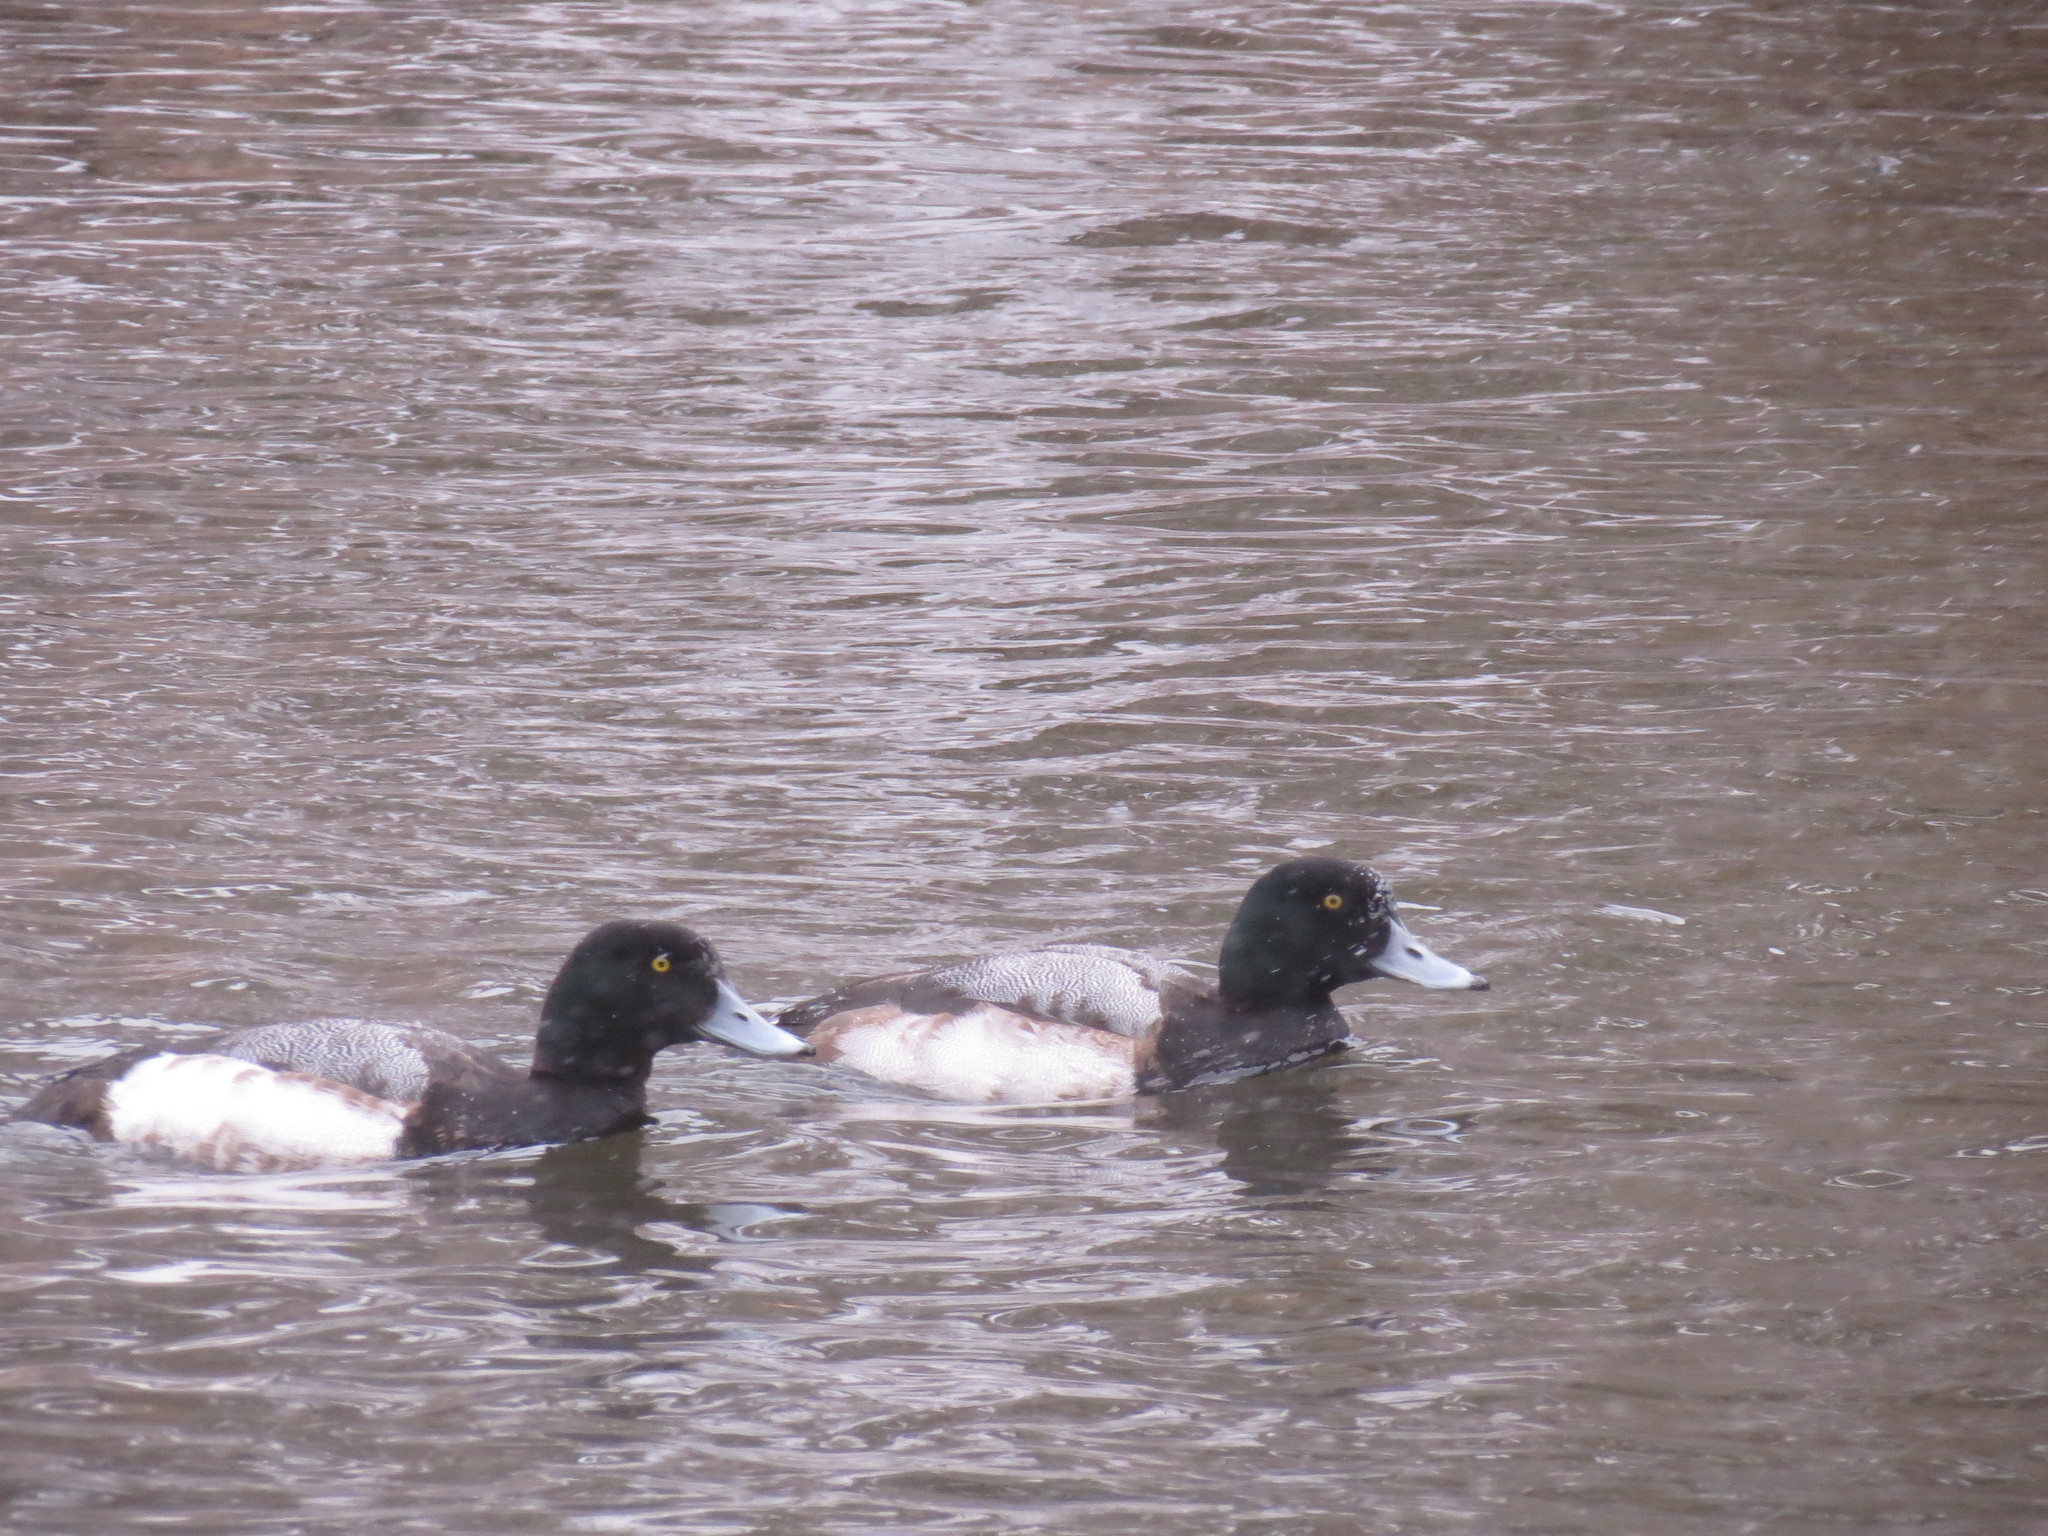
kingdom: Animalia
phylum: Chordata
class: Aves
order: Anseriformes
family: Anatidae
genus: Aythya
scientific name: Aythya marila
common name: Greater scaup
